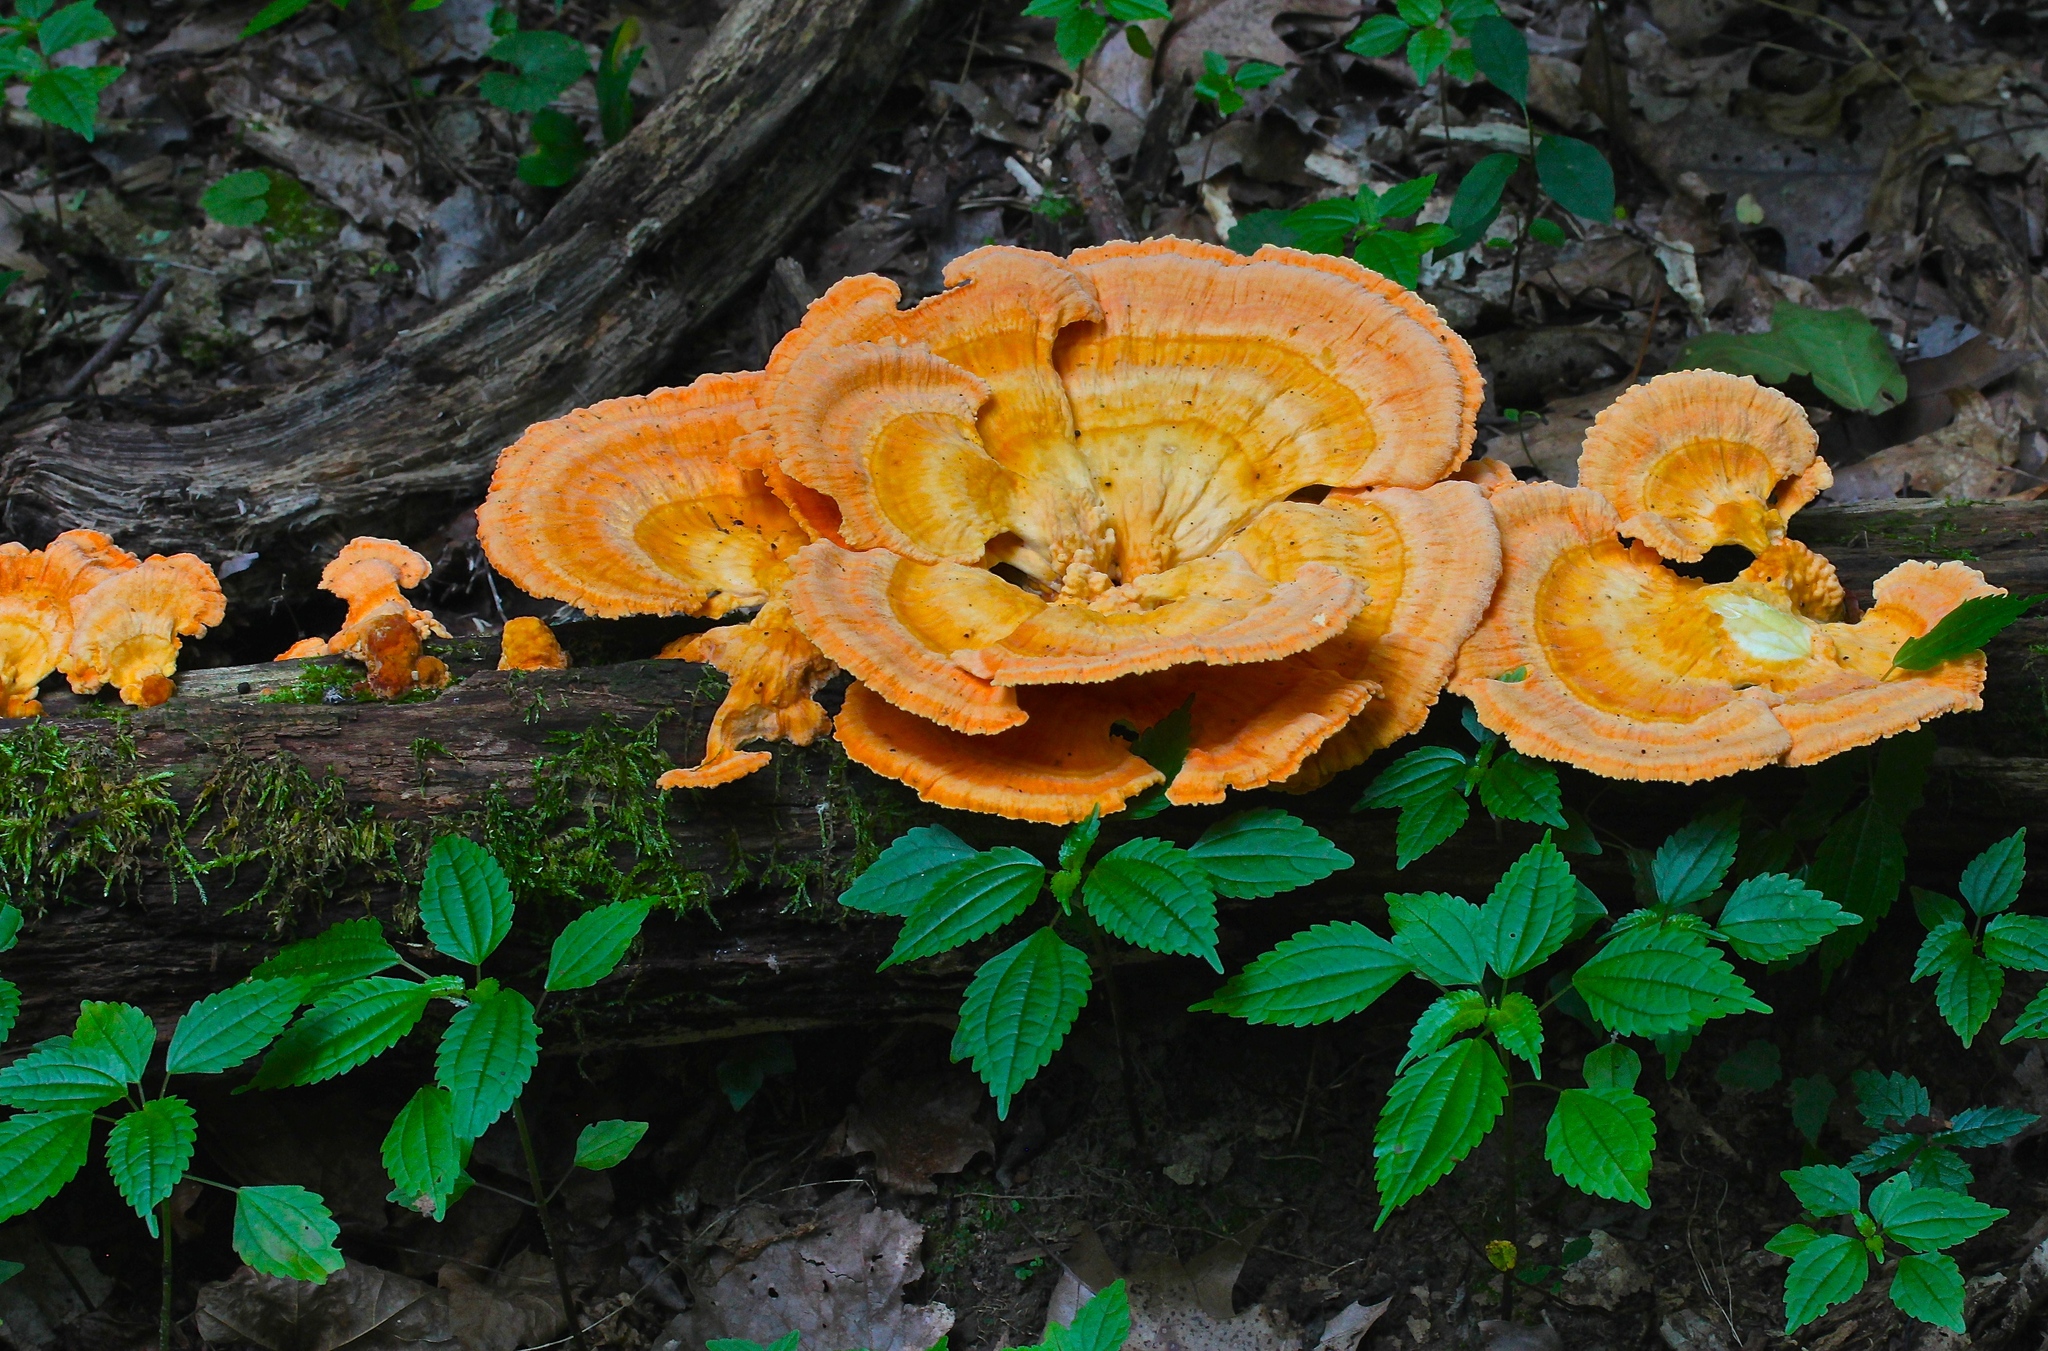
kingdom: Fungi
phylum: Basidiomycota
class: Agaricomycetes
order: Polyporales
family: Laetiporaceae
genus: Laetiporus
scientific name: Laetiporus sulphureus
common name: Chicken of the woods
